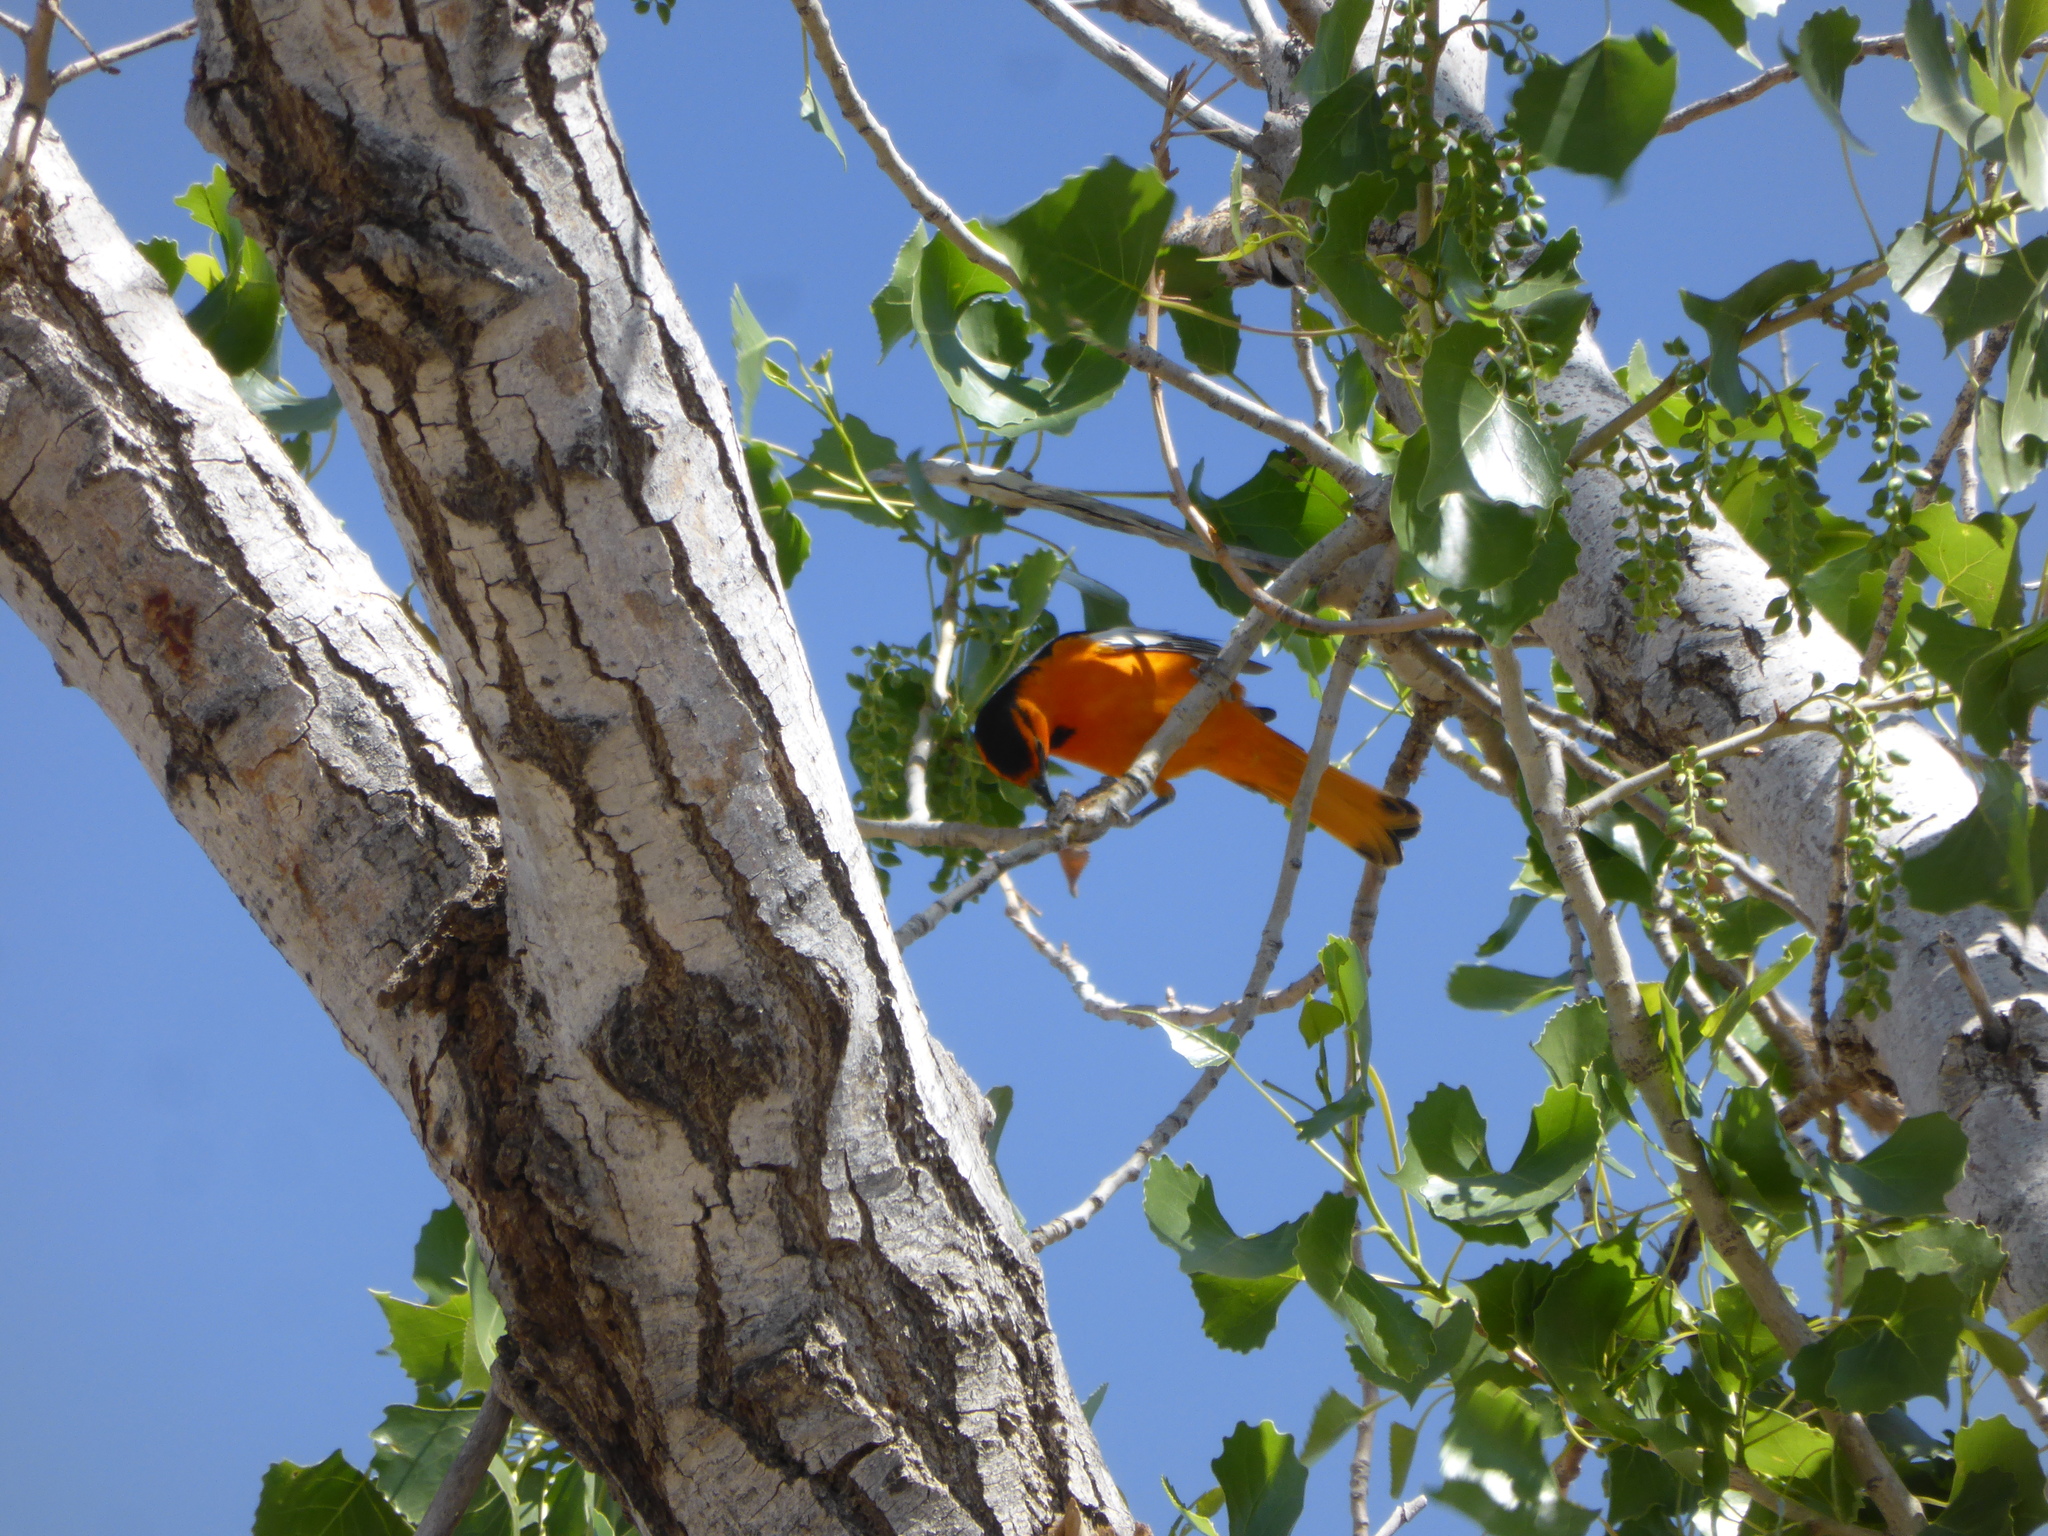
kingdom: Animalia
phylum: Chordata
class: Aves
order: Passeriformes
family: Icteridae
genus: Icterus
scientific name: Icterus bullockii
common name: Bullock's oriole
